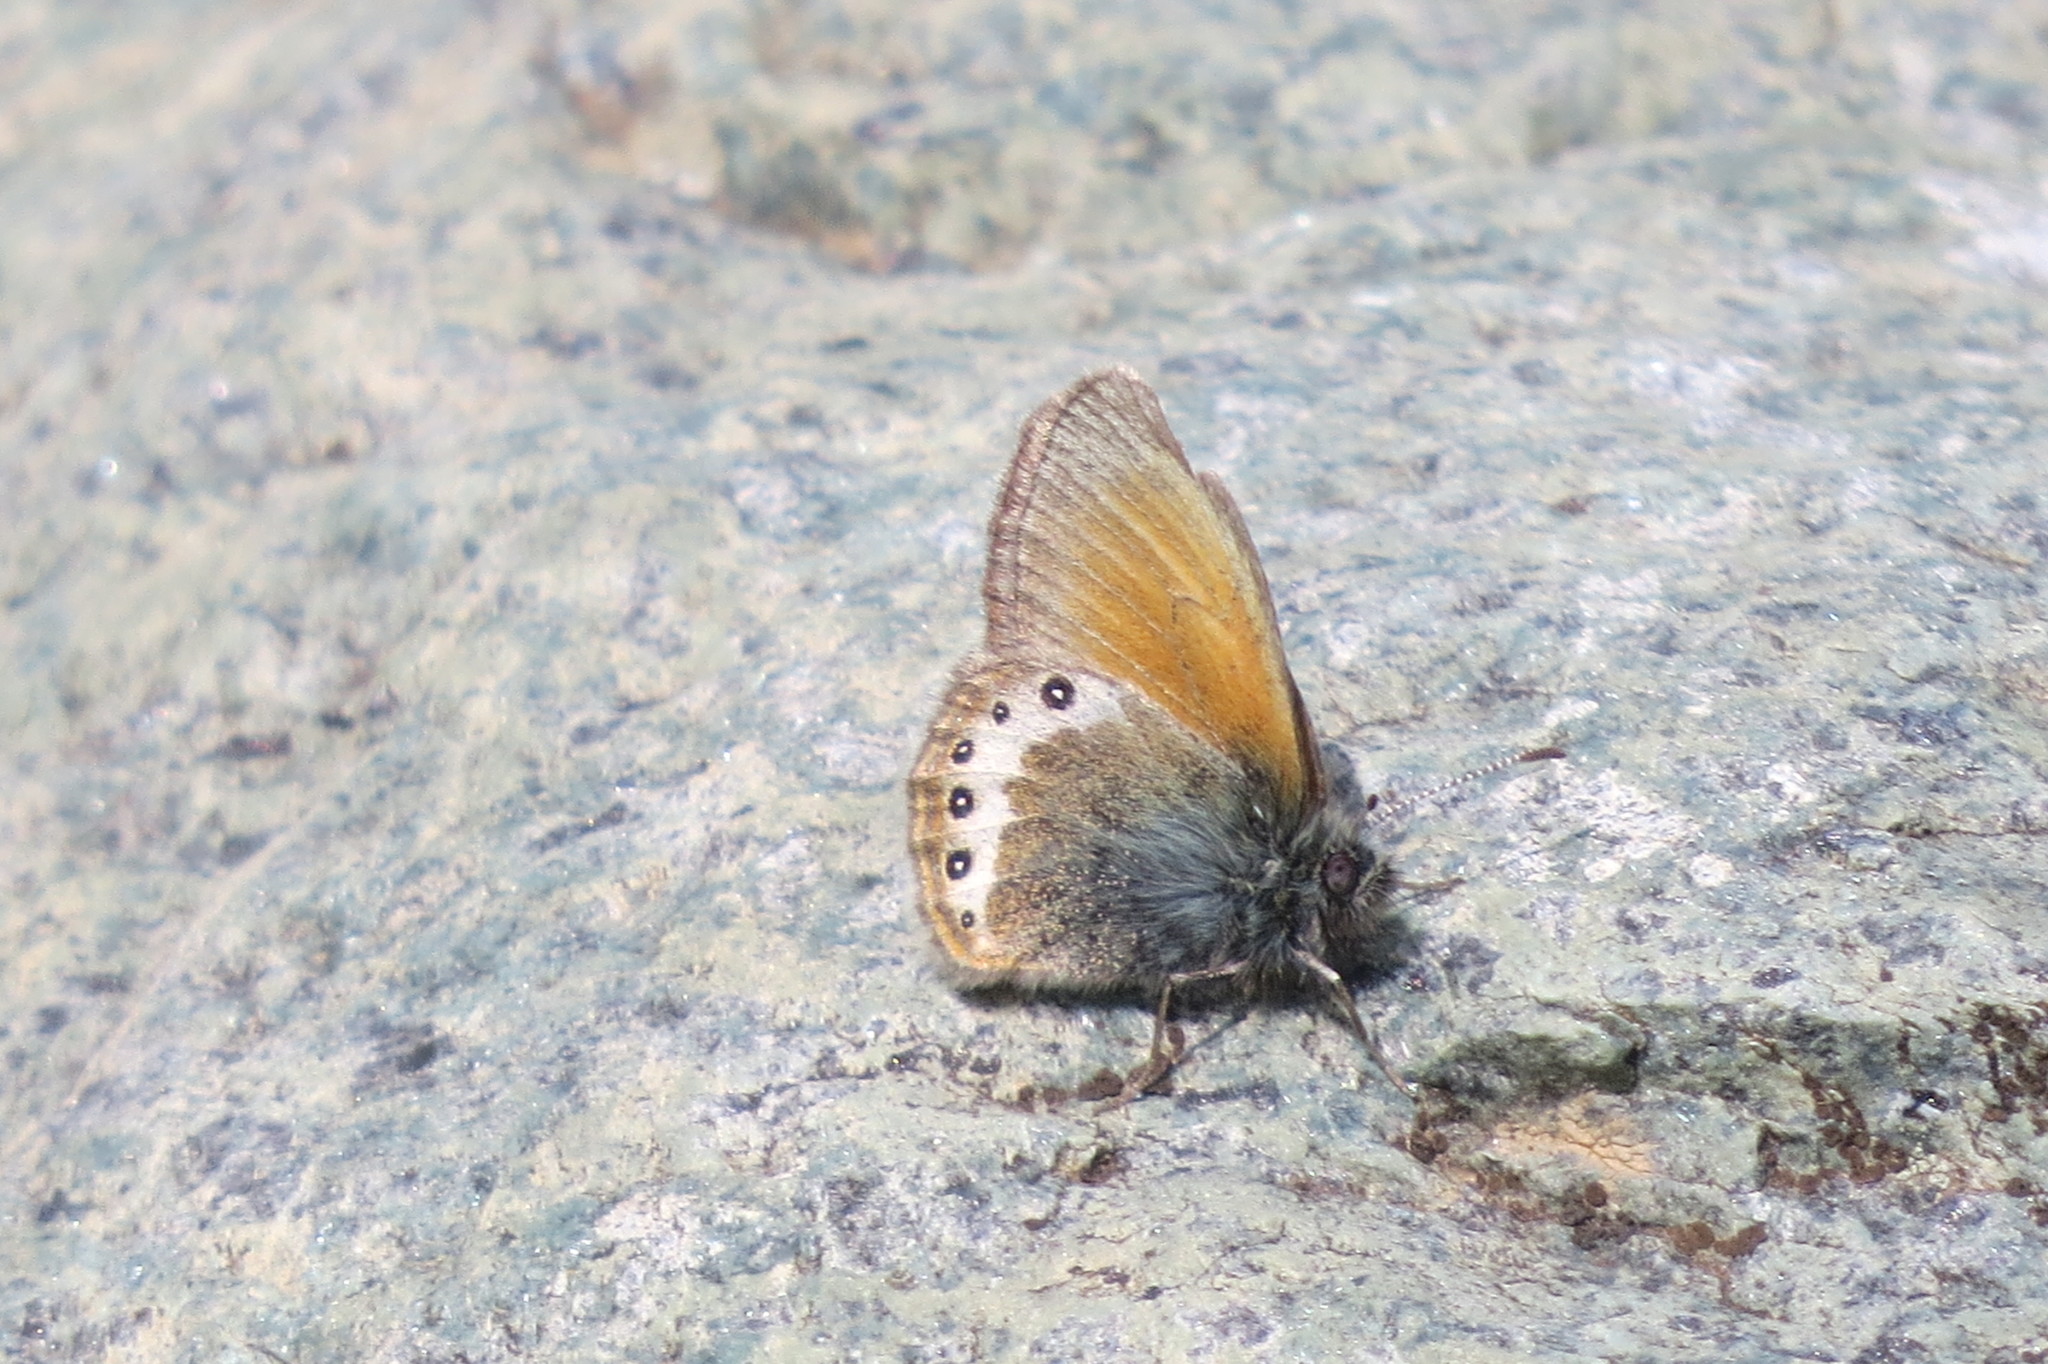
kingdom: Animalia
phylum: Arthropoda
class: Insecta
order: Lepidoptera
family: Nymphalidae
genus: Coenonympha
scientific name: Coenonympha
